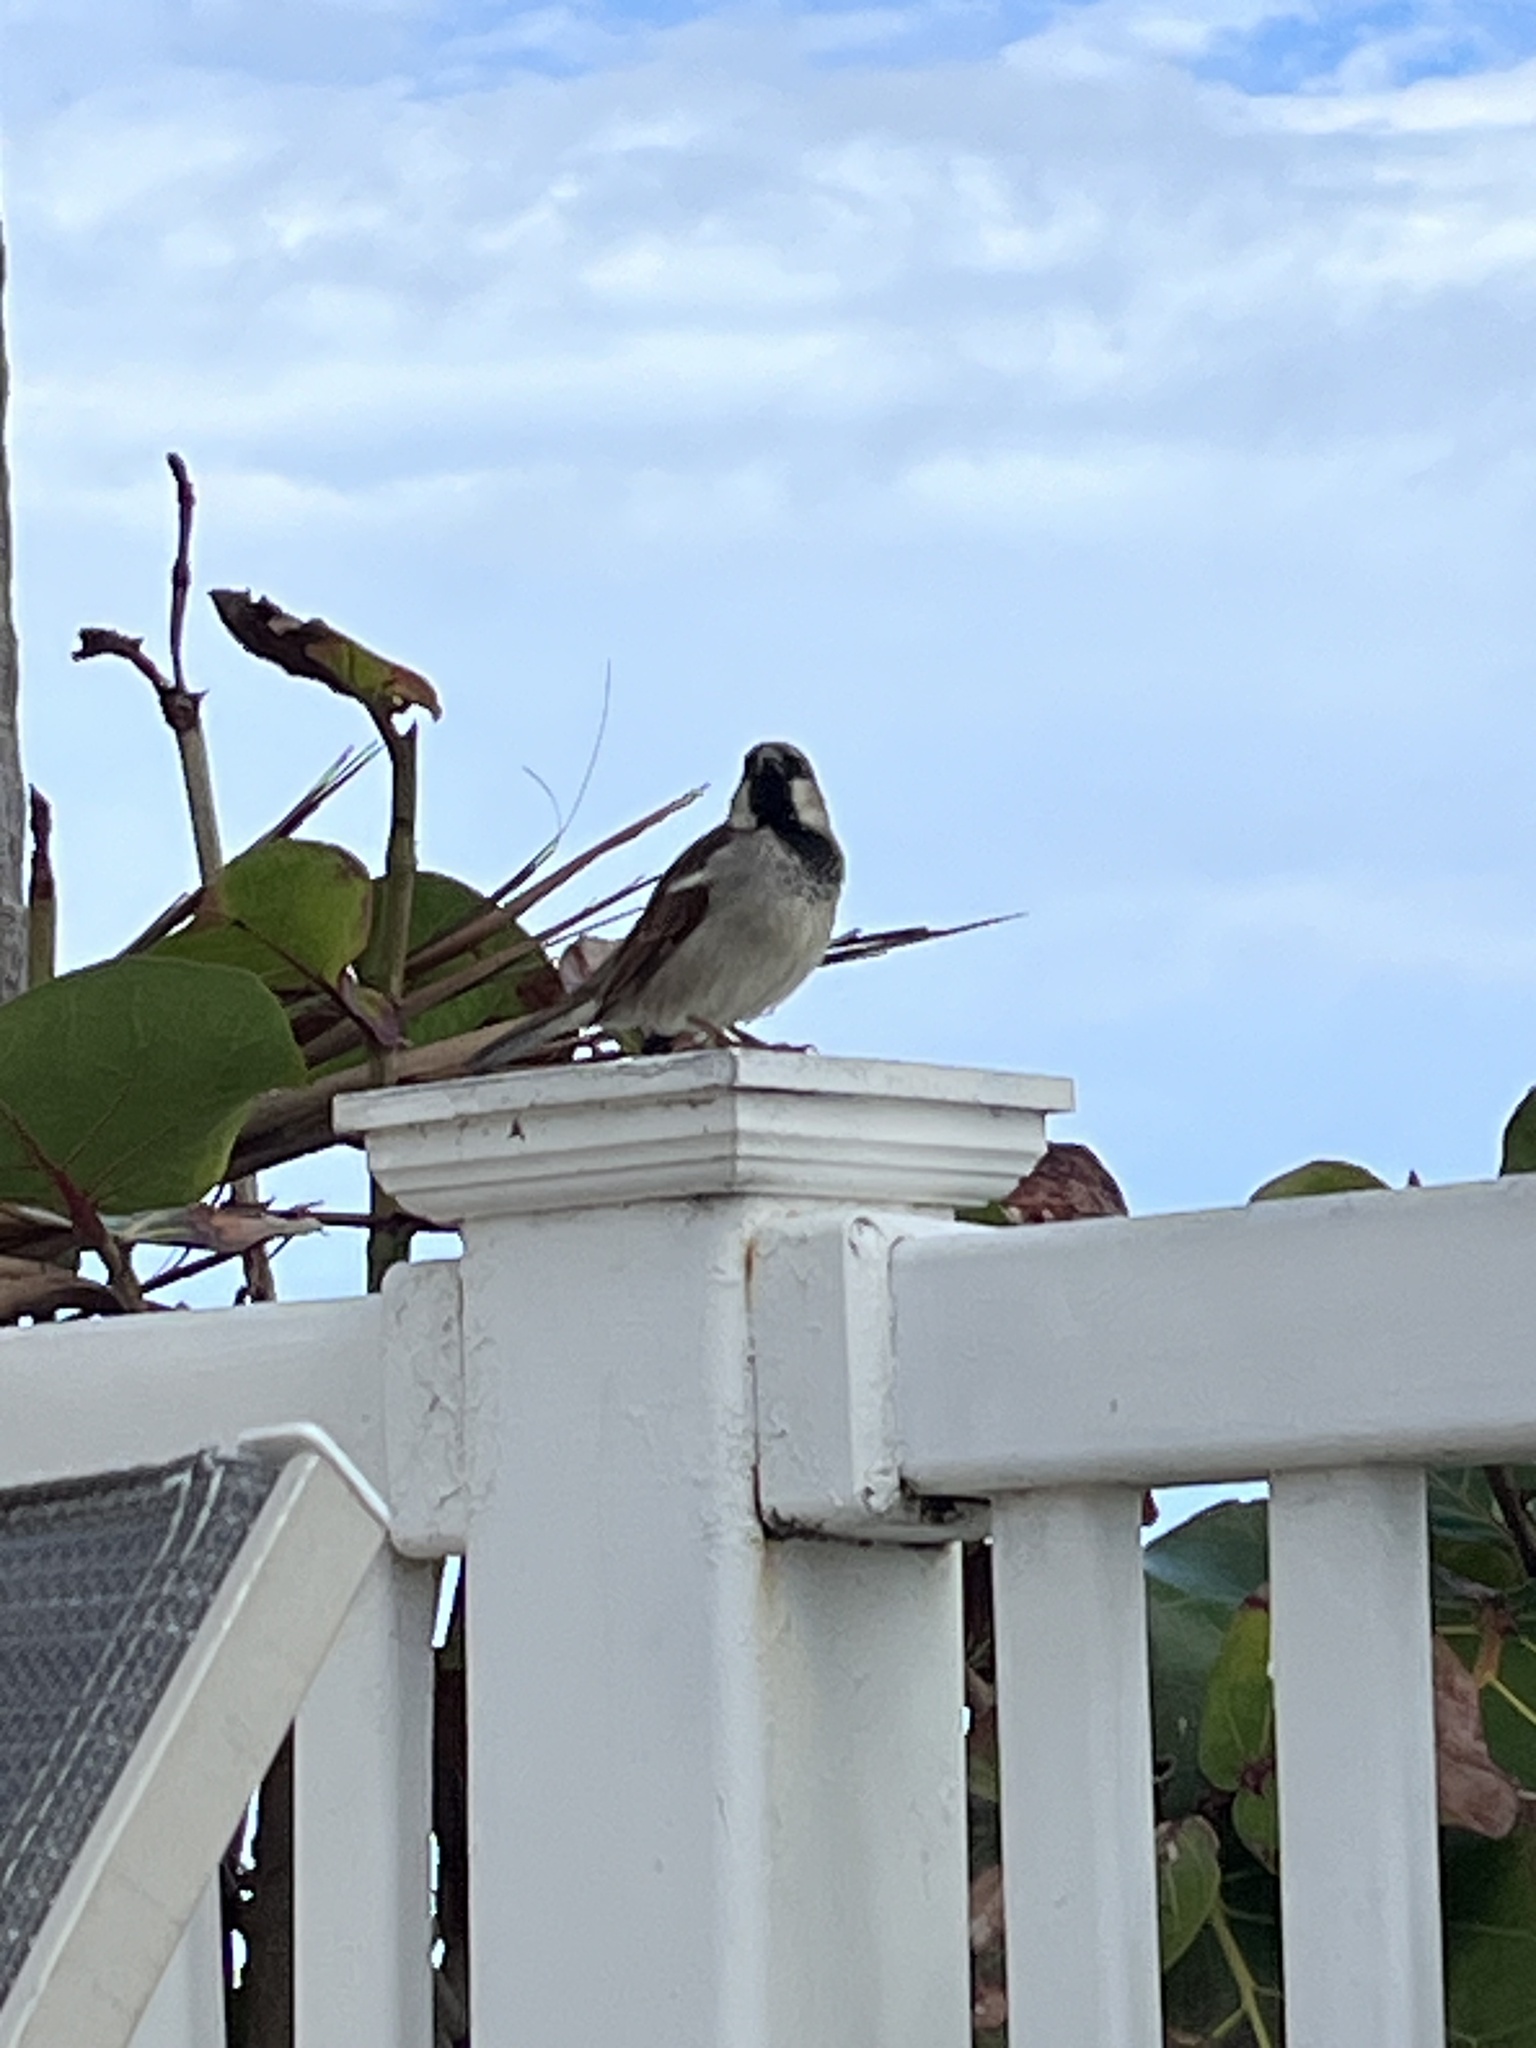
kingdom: Animalia
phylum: Chordata
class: Aves
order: Passeriformes
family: Passeridae
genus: Passer
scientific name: Passer domesticus
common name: House sparrow
